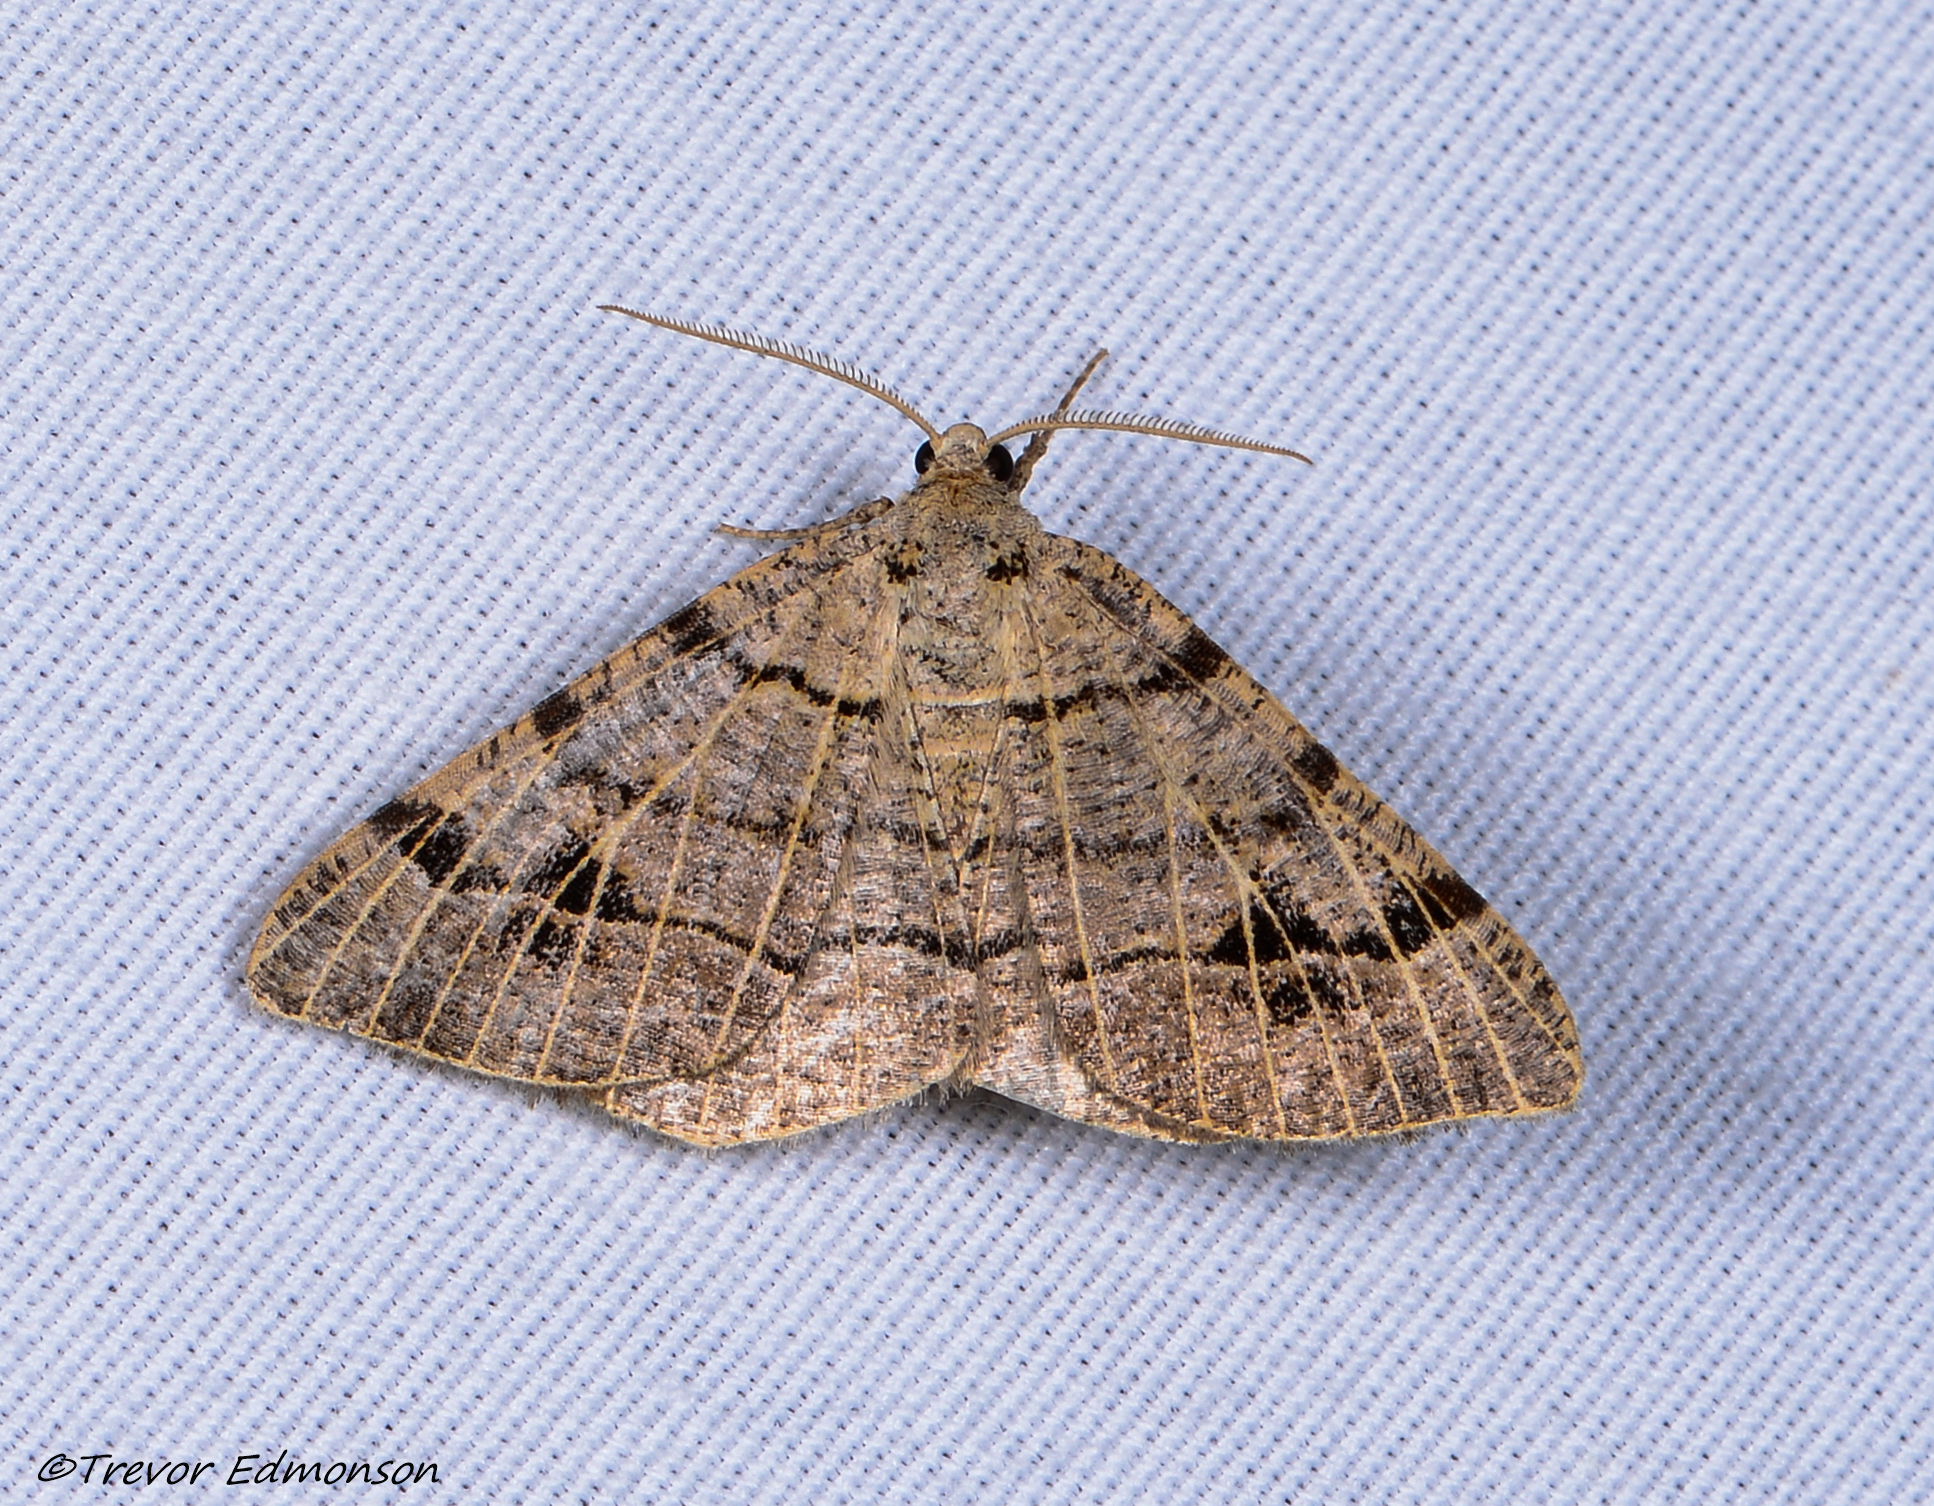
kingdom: Animalia
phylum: Arthropoda
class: Insecta
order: Lepidoptera
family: Geometridae
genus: Isturgia
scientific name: Isturgia dislocaria
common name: Pale-viened enconista
